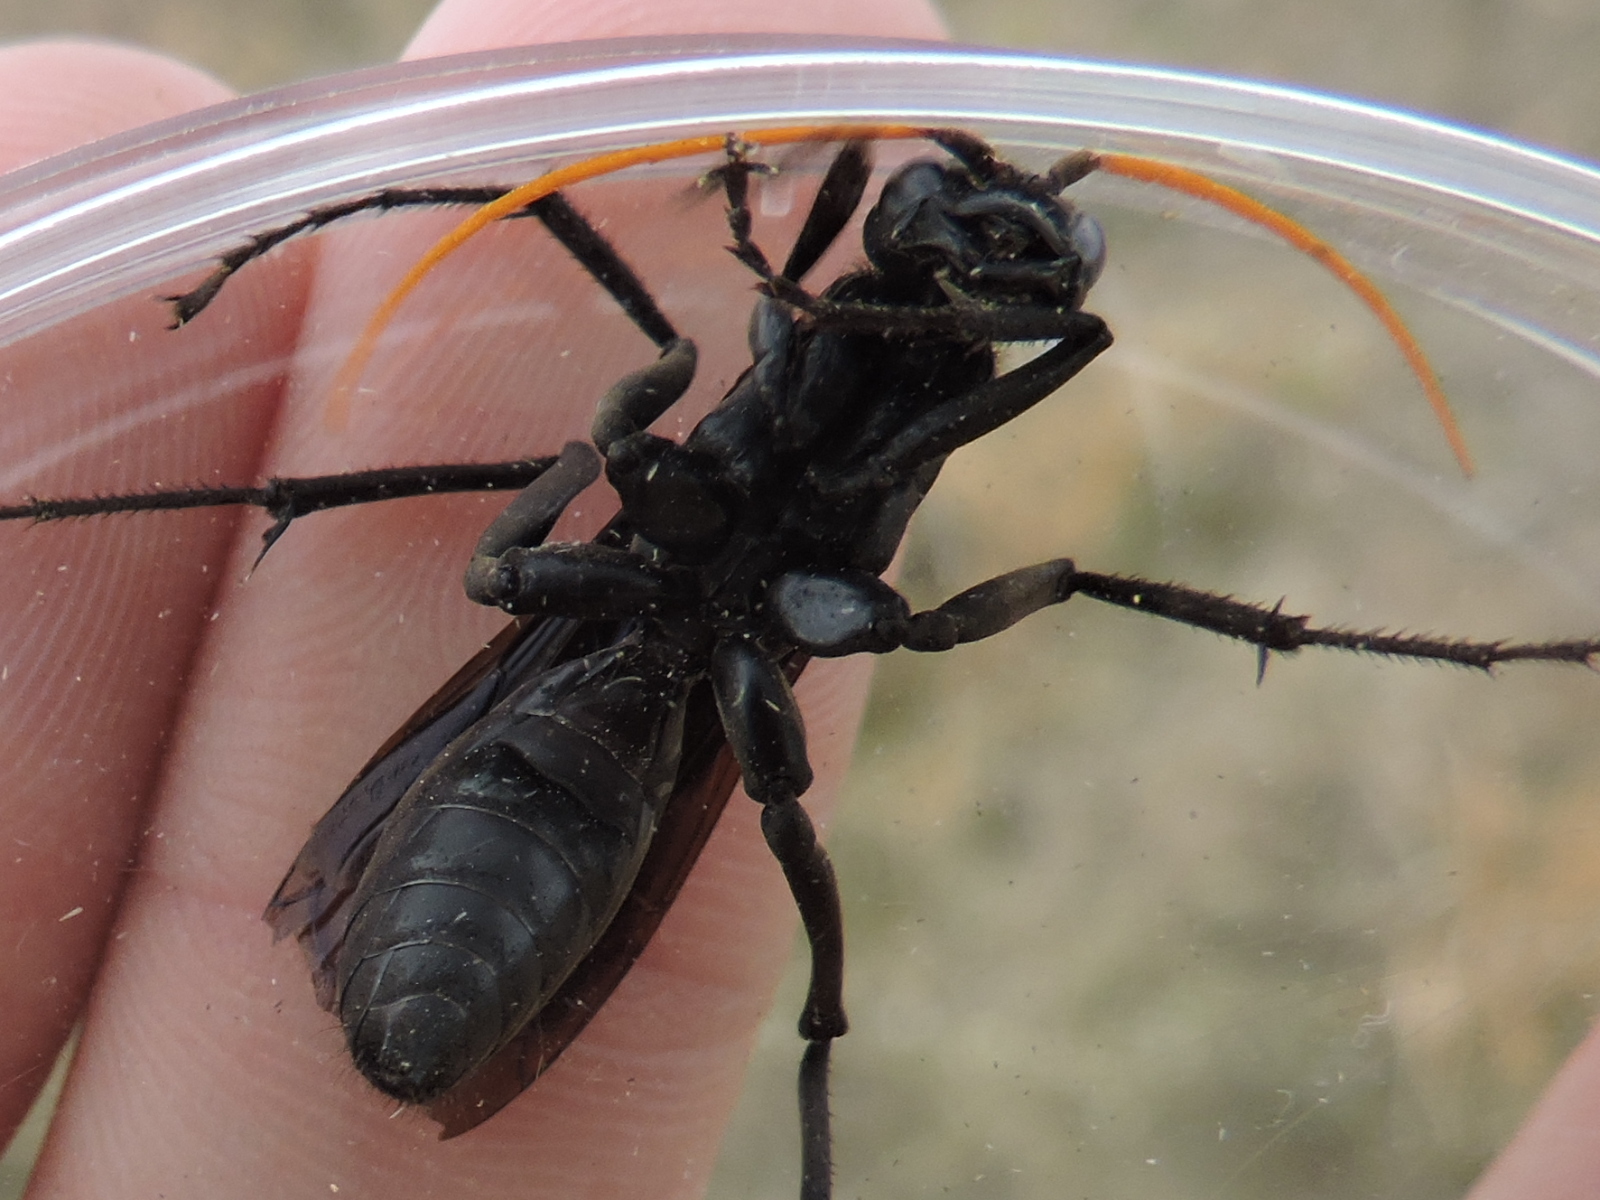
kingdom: Animalia
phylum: Arthropoda
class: Insecta
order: Hymenoptera
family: Pompilidae
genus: Entypus
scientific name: Entypus
